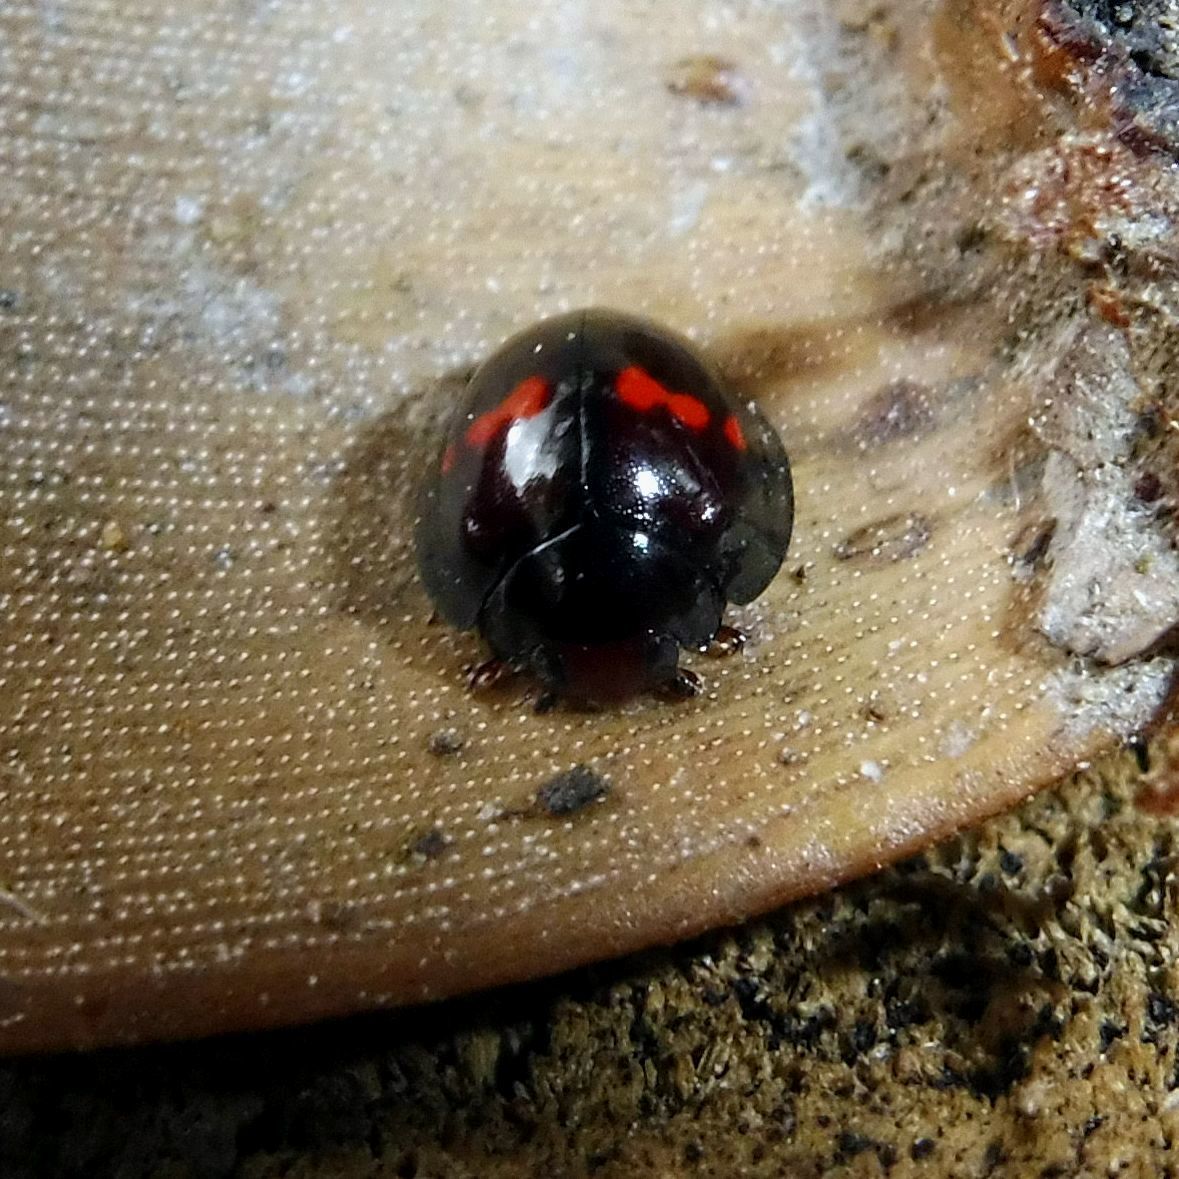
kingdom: Animalia
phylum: Arthropoda
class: Insecta
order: Coleoptera
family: Coccinellidae
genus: Chilocorus
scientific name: Chilocorus bipustulatus
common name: Heather ladybird
